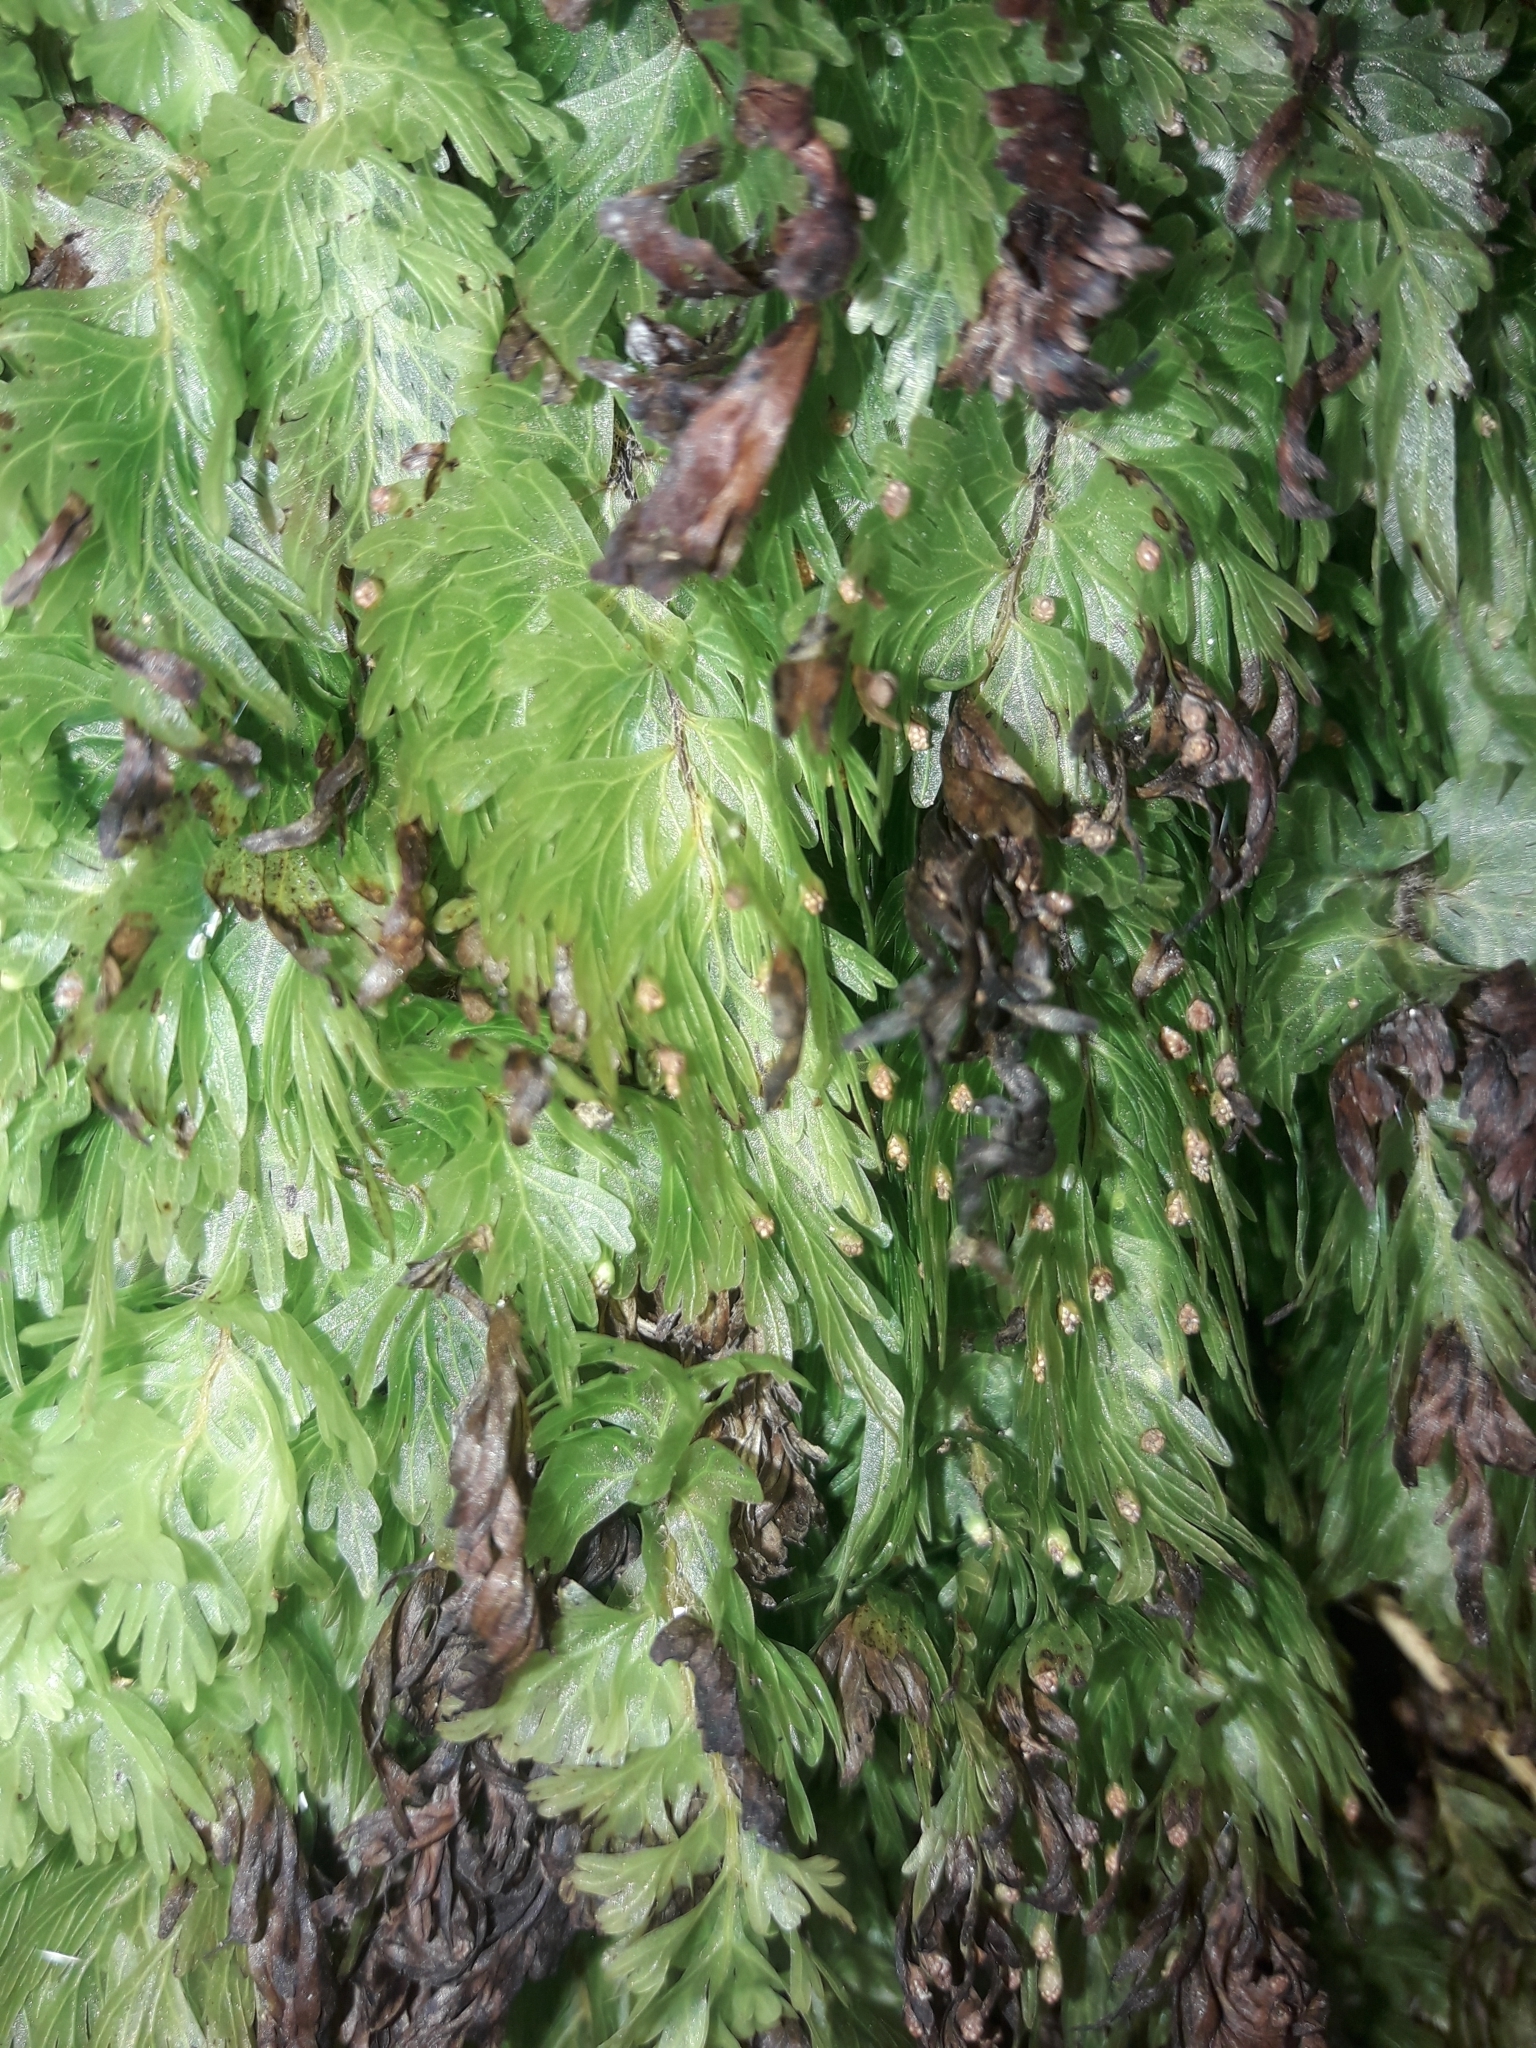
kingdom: Plantae
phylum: Tracheophyta
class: Polypodiopsida
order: Hymenophyllales
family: Hymenophyllaceae
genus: Hymenophyllum
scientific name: Hymenophyllum flabellatum
